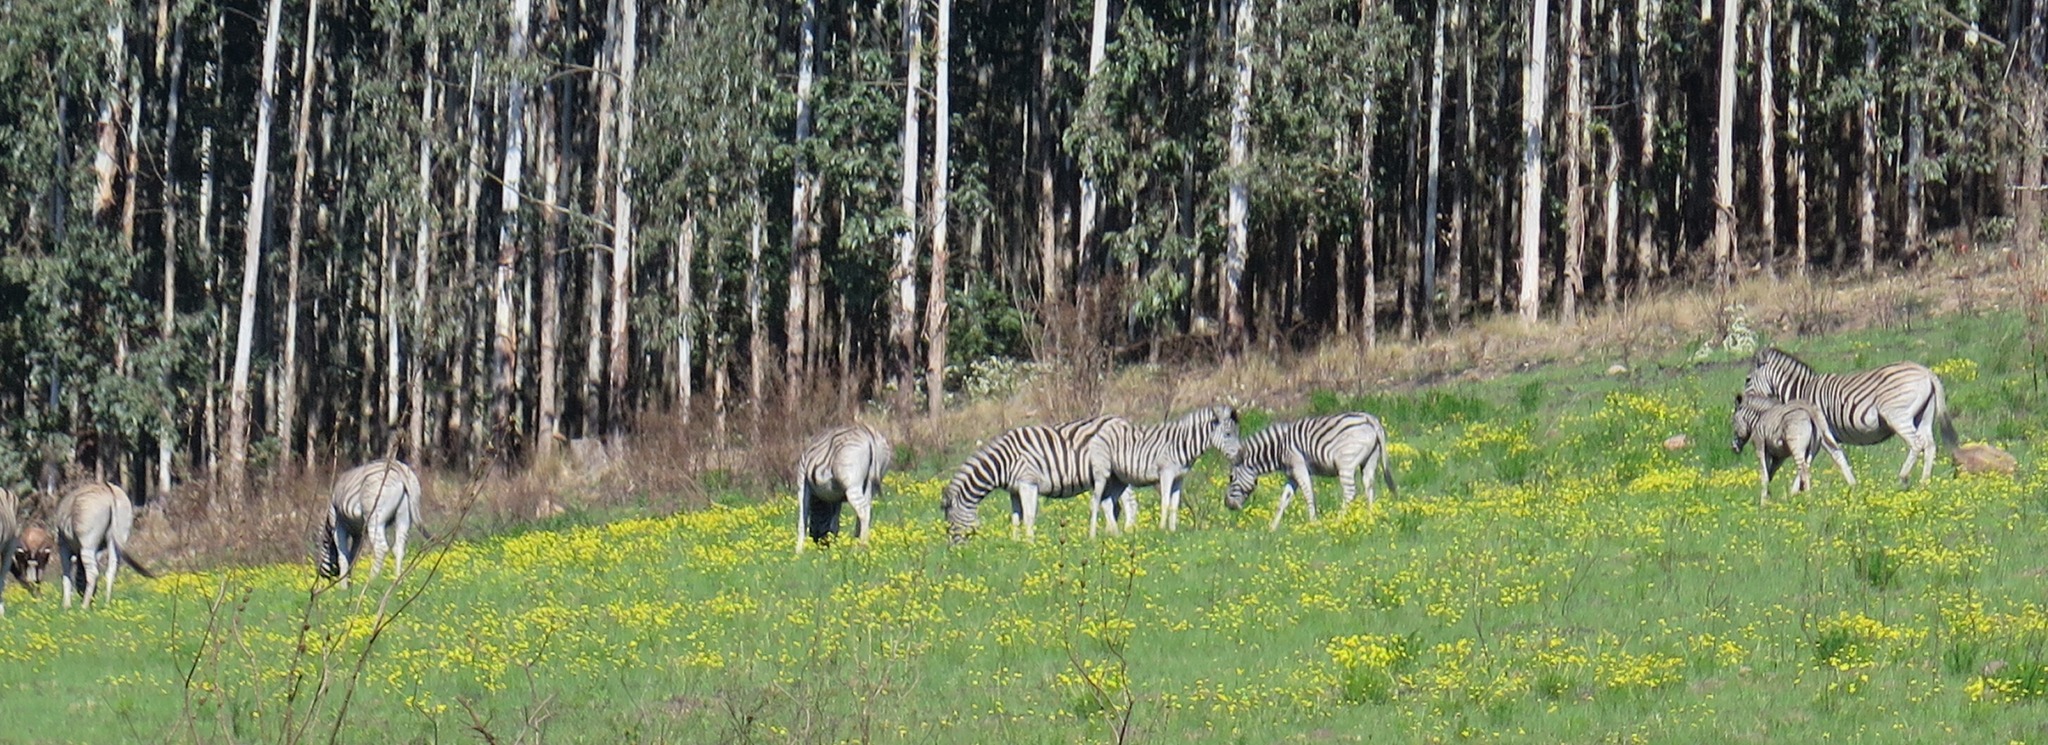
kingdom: Animalia
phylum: Chordata
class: Mammalia
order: Perissodactyla
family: Equidae
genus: Equus
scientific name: Equus quagga
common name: Plains zebra
